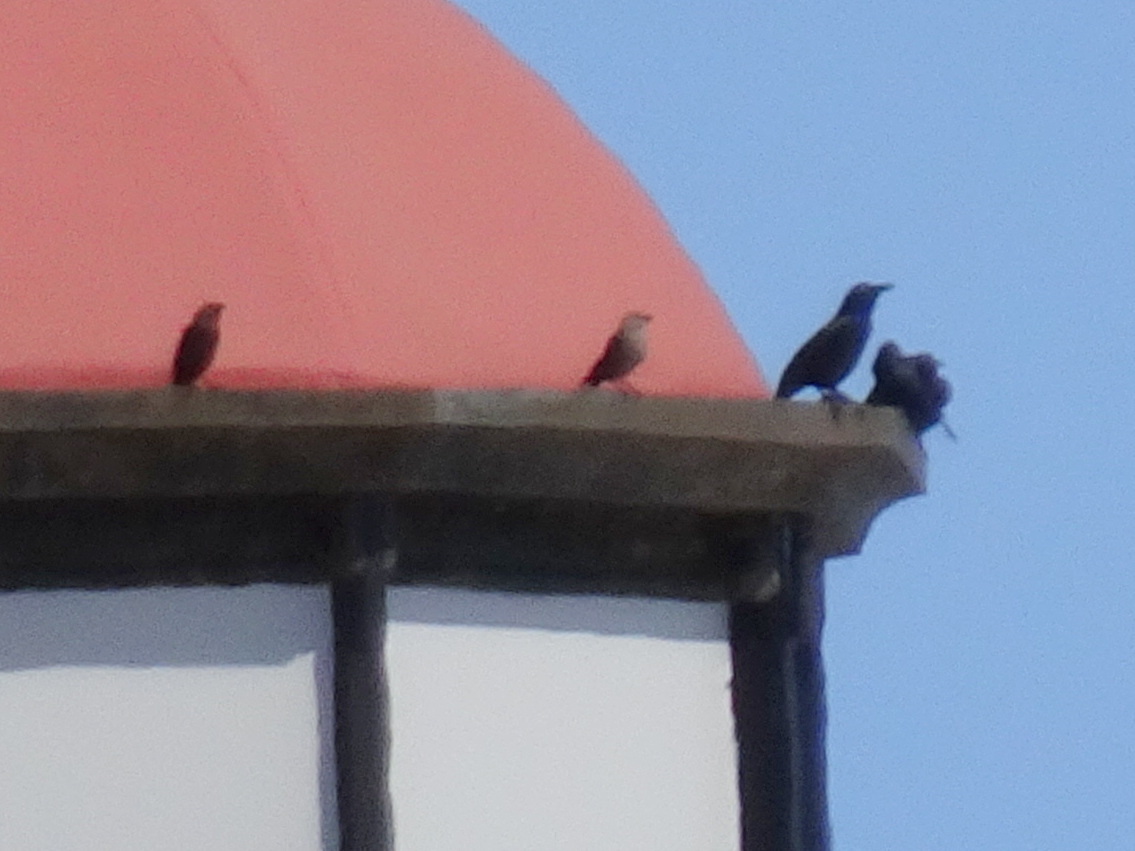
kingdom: Animalia
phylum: Chordata
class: Aves
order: Passeriformes
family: Icteridae
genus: Molothrus
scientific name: Molothrus ater
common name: Brown-headed cowbird
